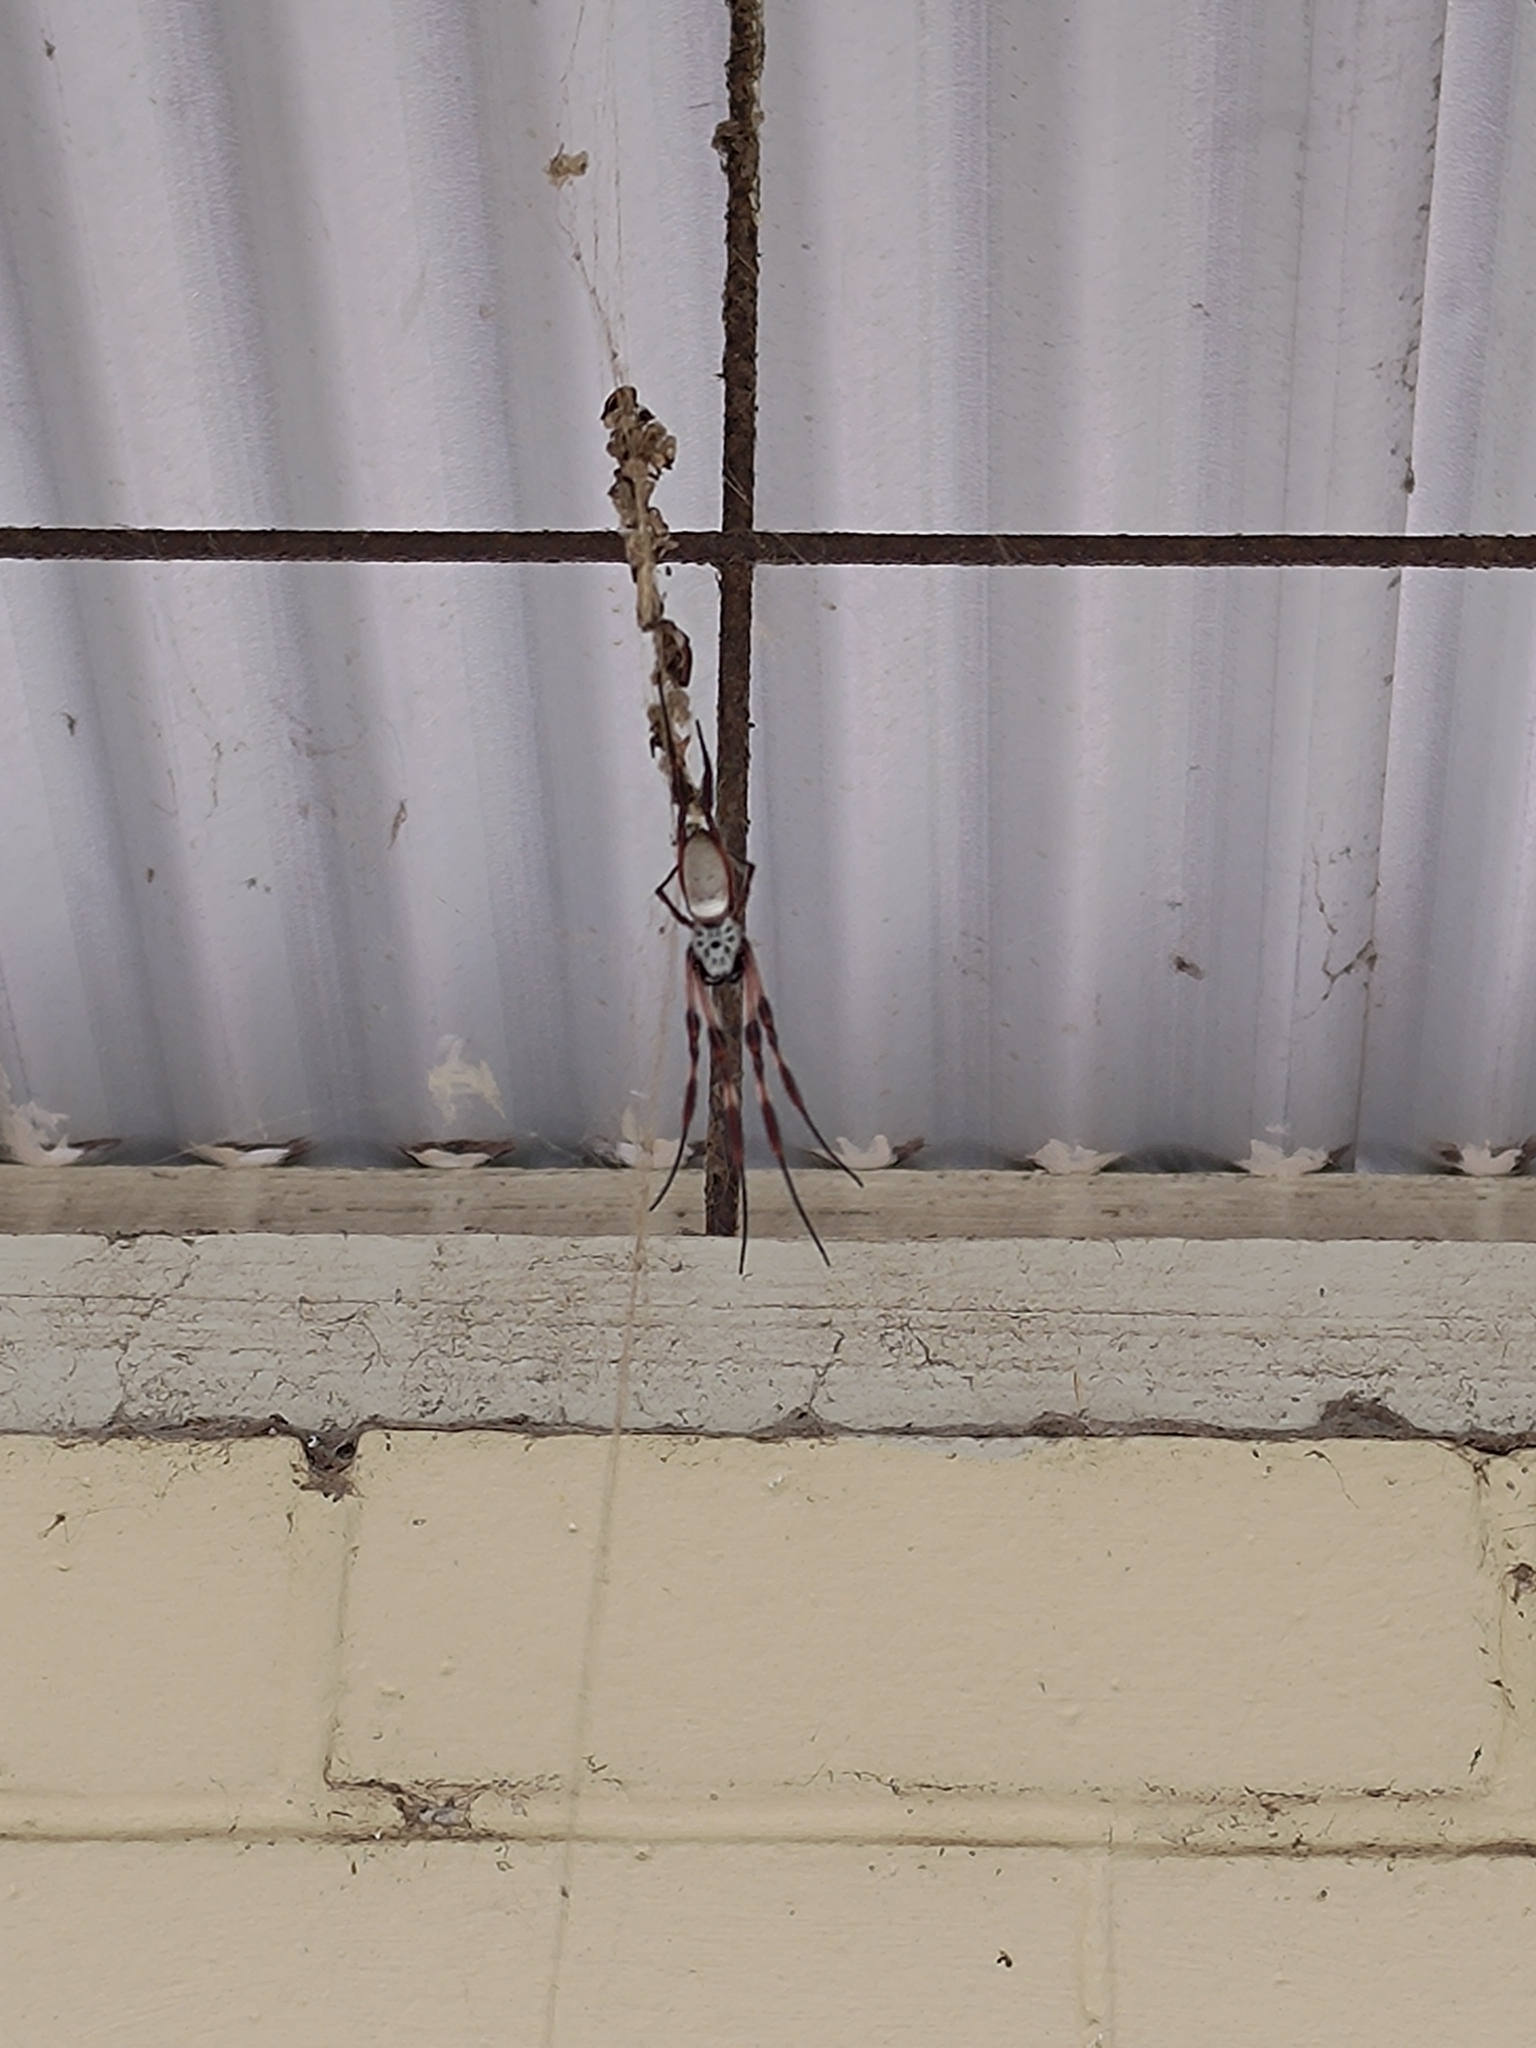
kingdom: Animalia
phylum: Arthropoda
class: Arachnida
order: Araneae
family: Araneidae
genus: Trichonephila
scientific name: Trichonephila edulis
